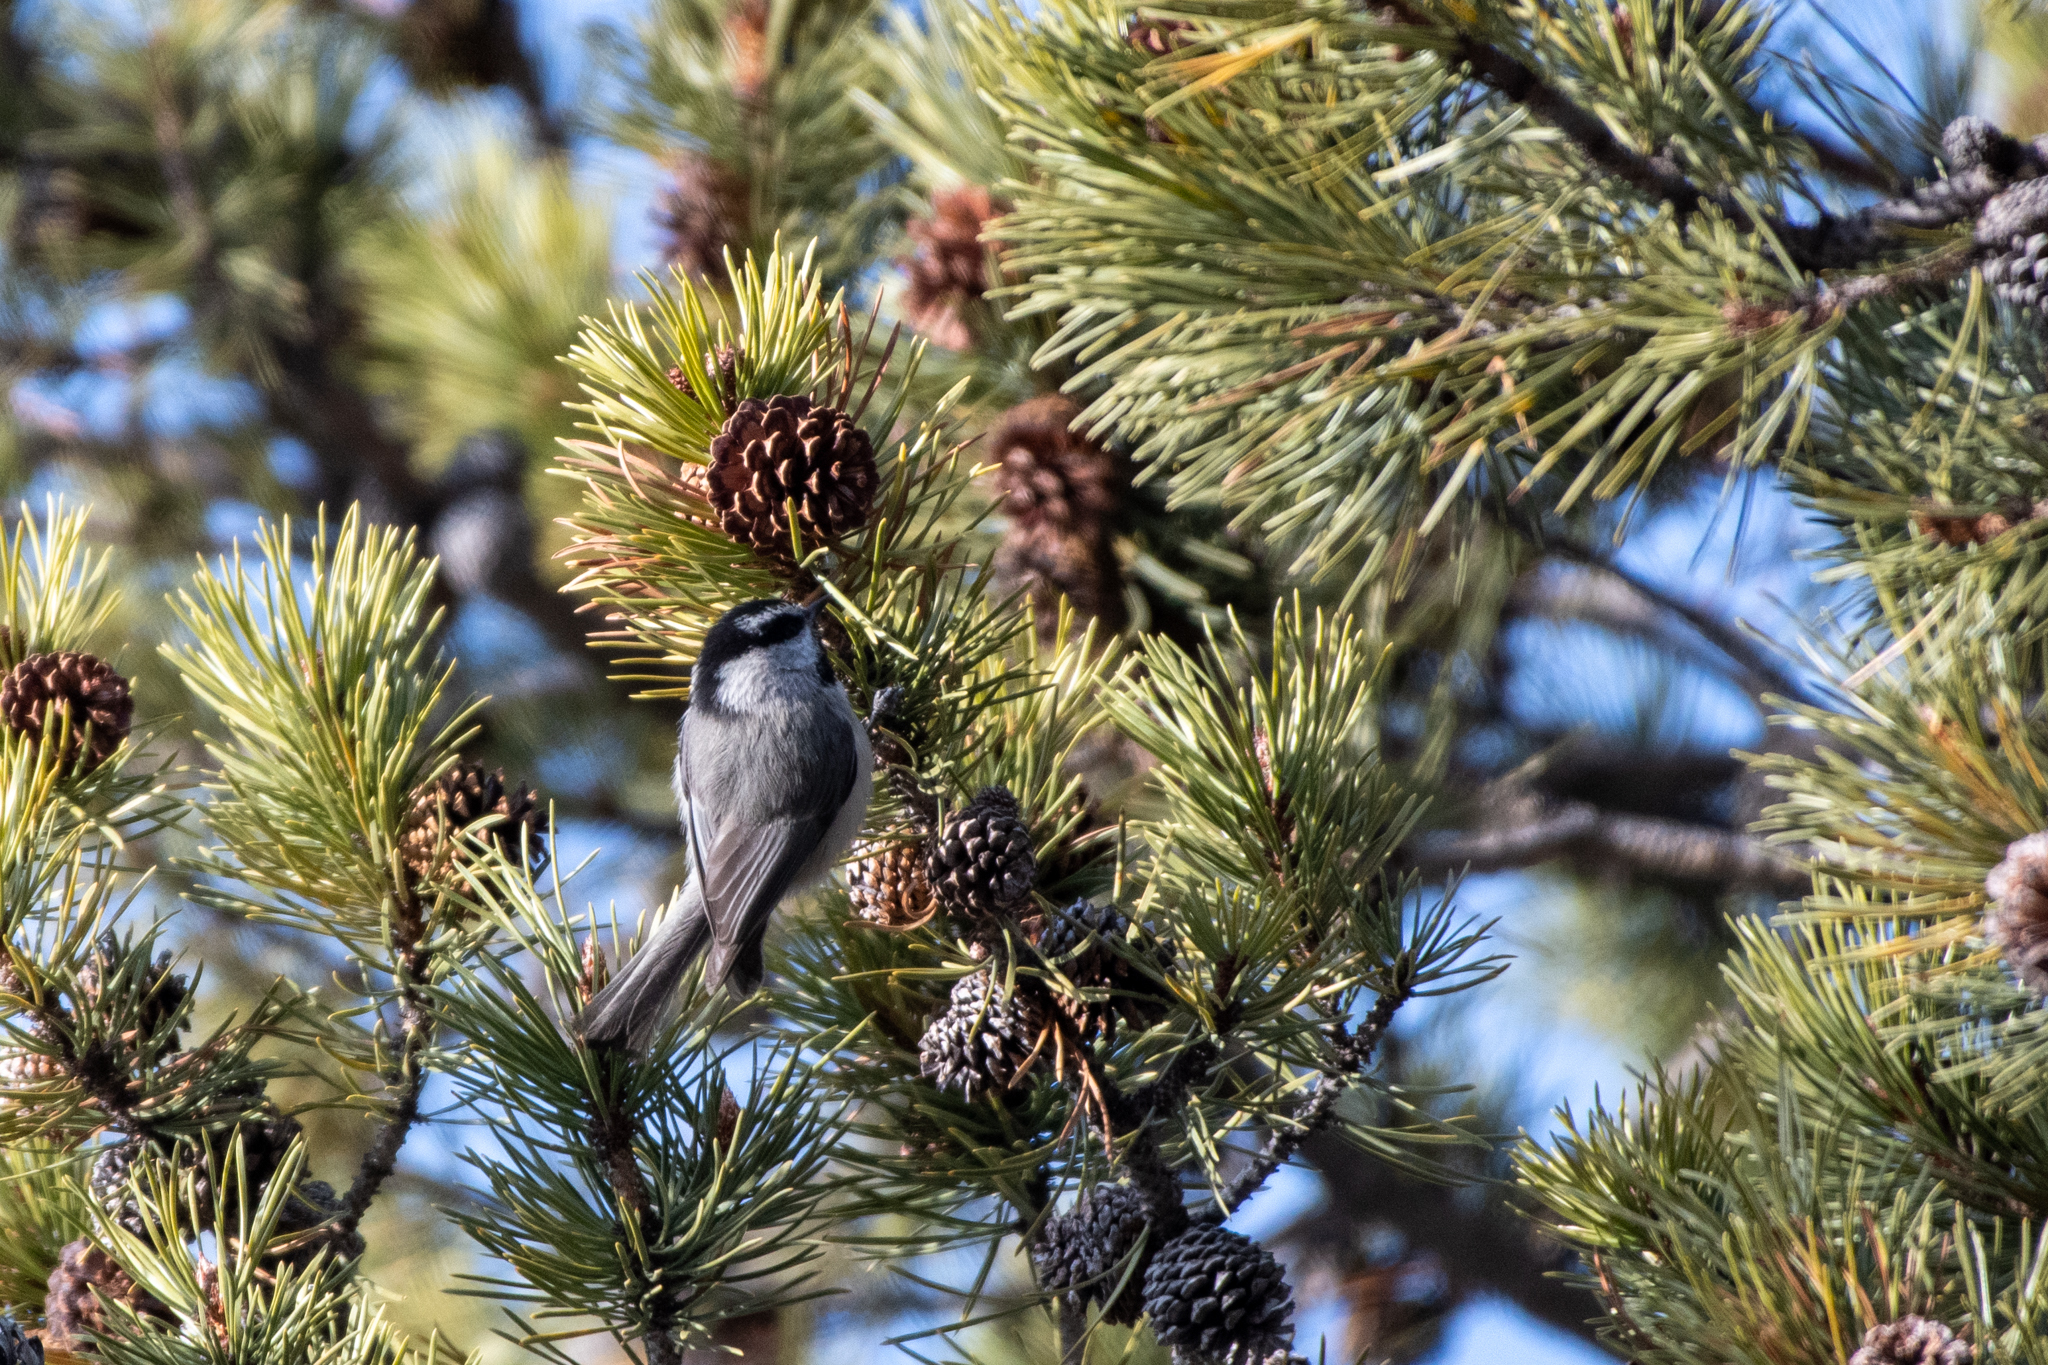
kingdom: Animalia
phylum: Chordata
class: Aves
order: Passeriformes
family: Paridae
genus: Poecile
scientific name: Poecile gambeli
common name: Mountain chickadee
